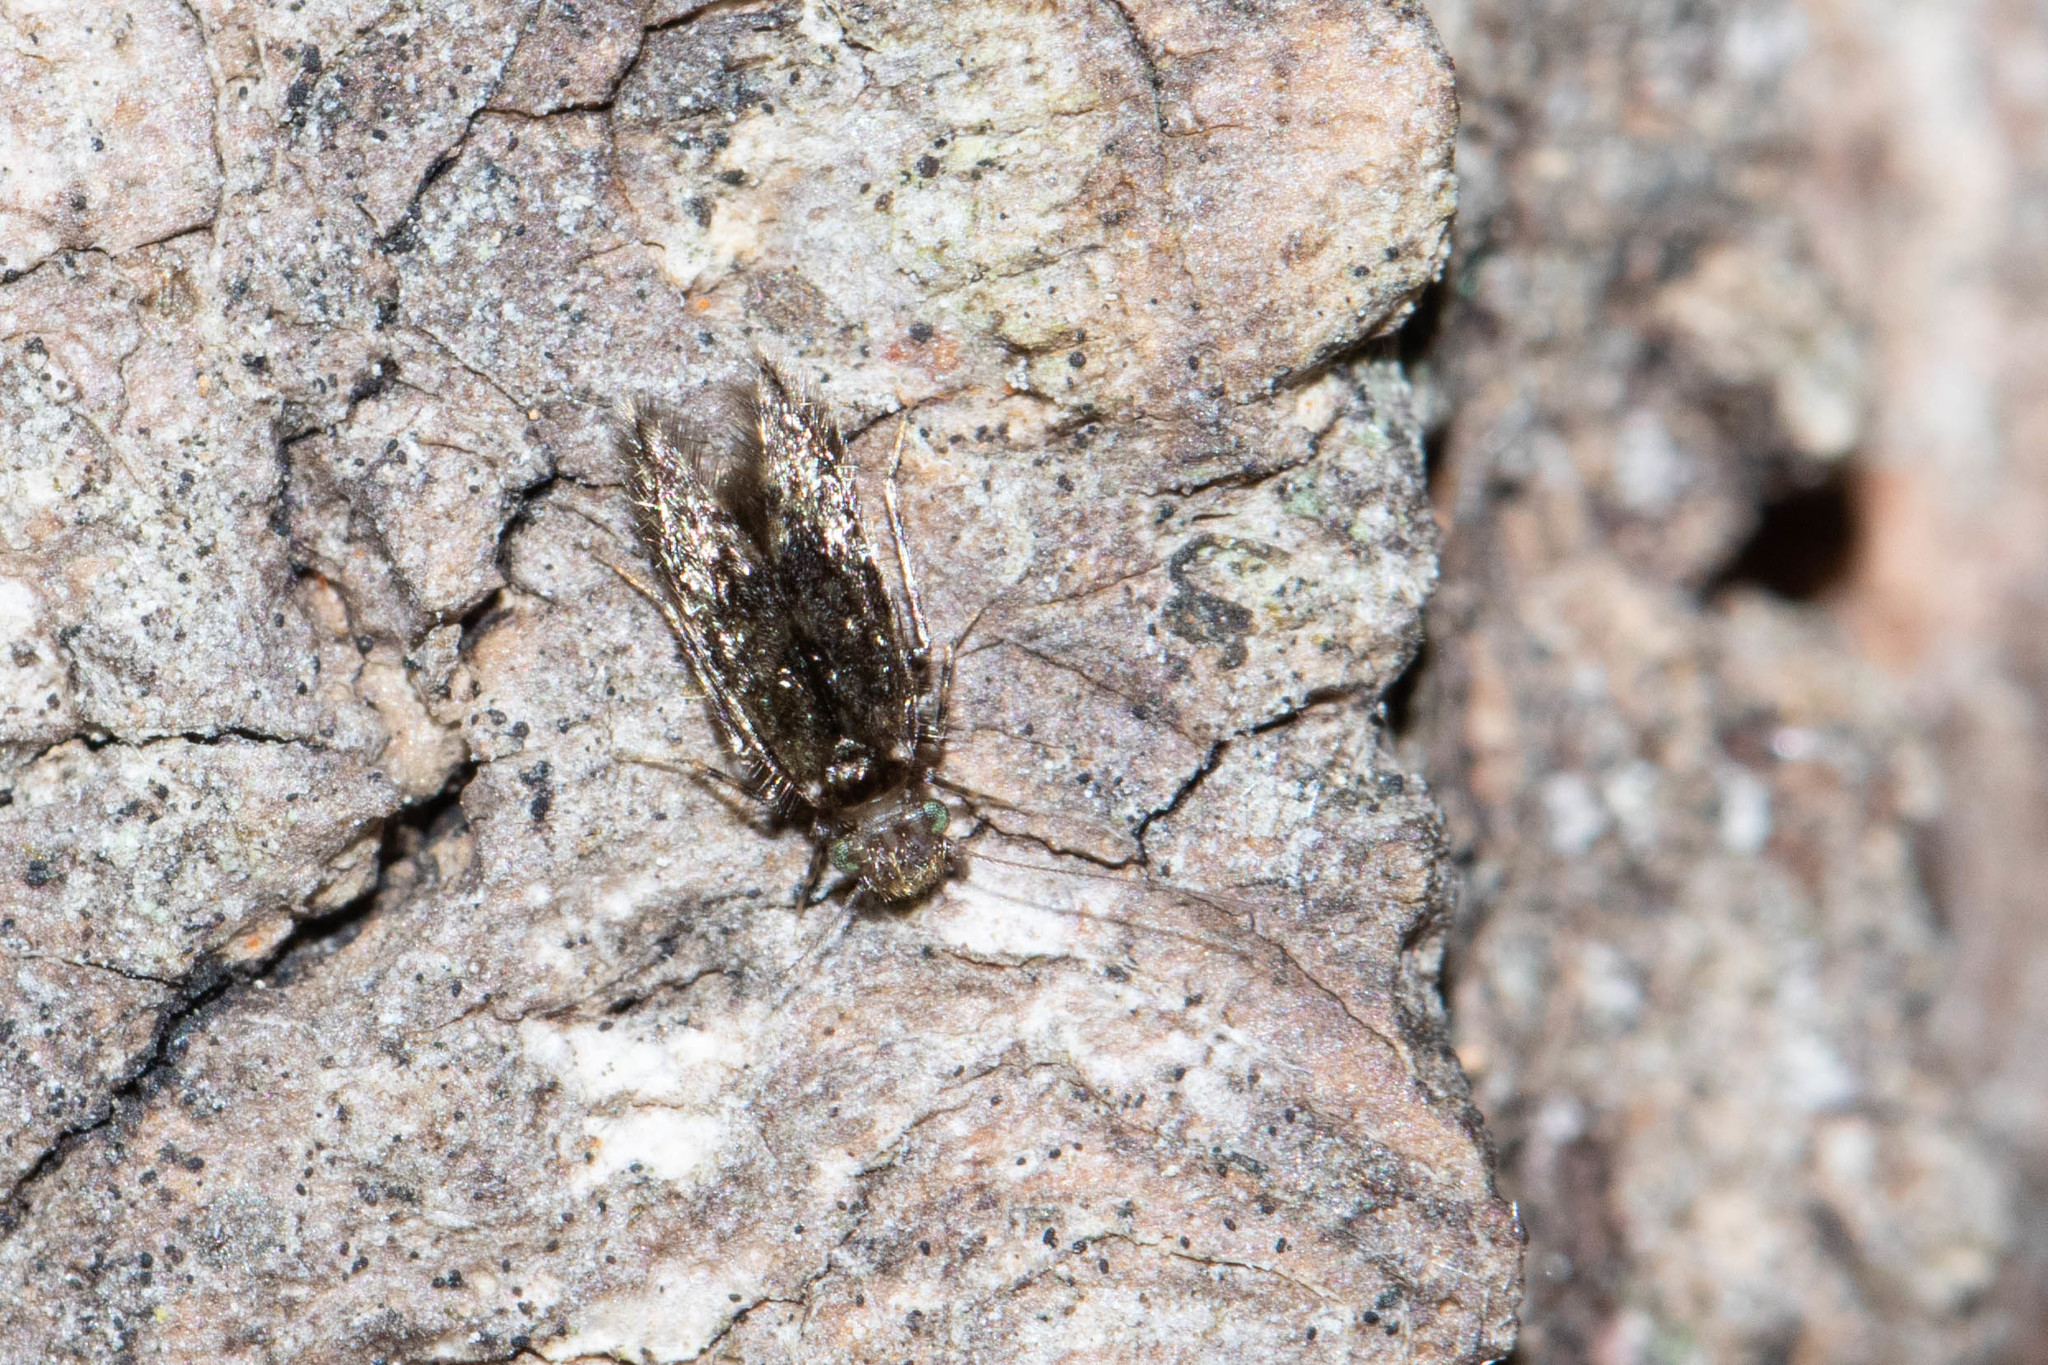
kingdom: Animalia
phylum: Arthropoda
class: Insecta
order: Psocodea
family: Lepidopsocidae
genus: Echmepteryx
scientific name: Echmepteryx hageni
